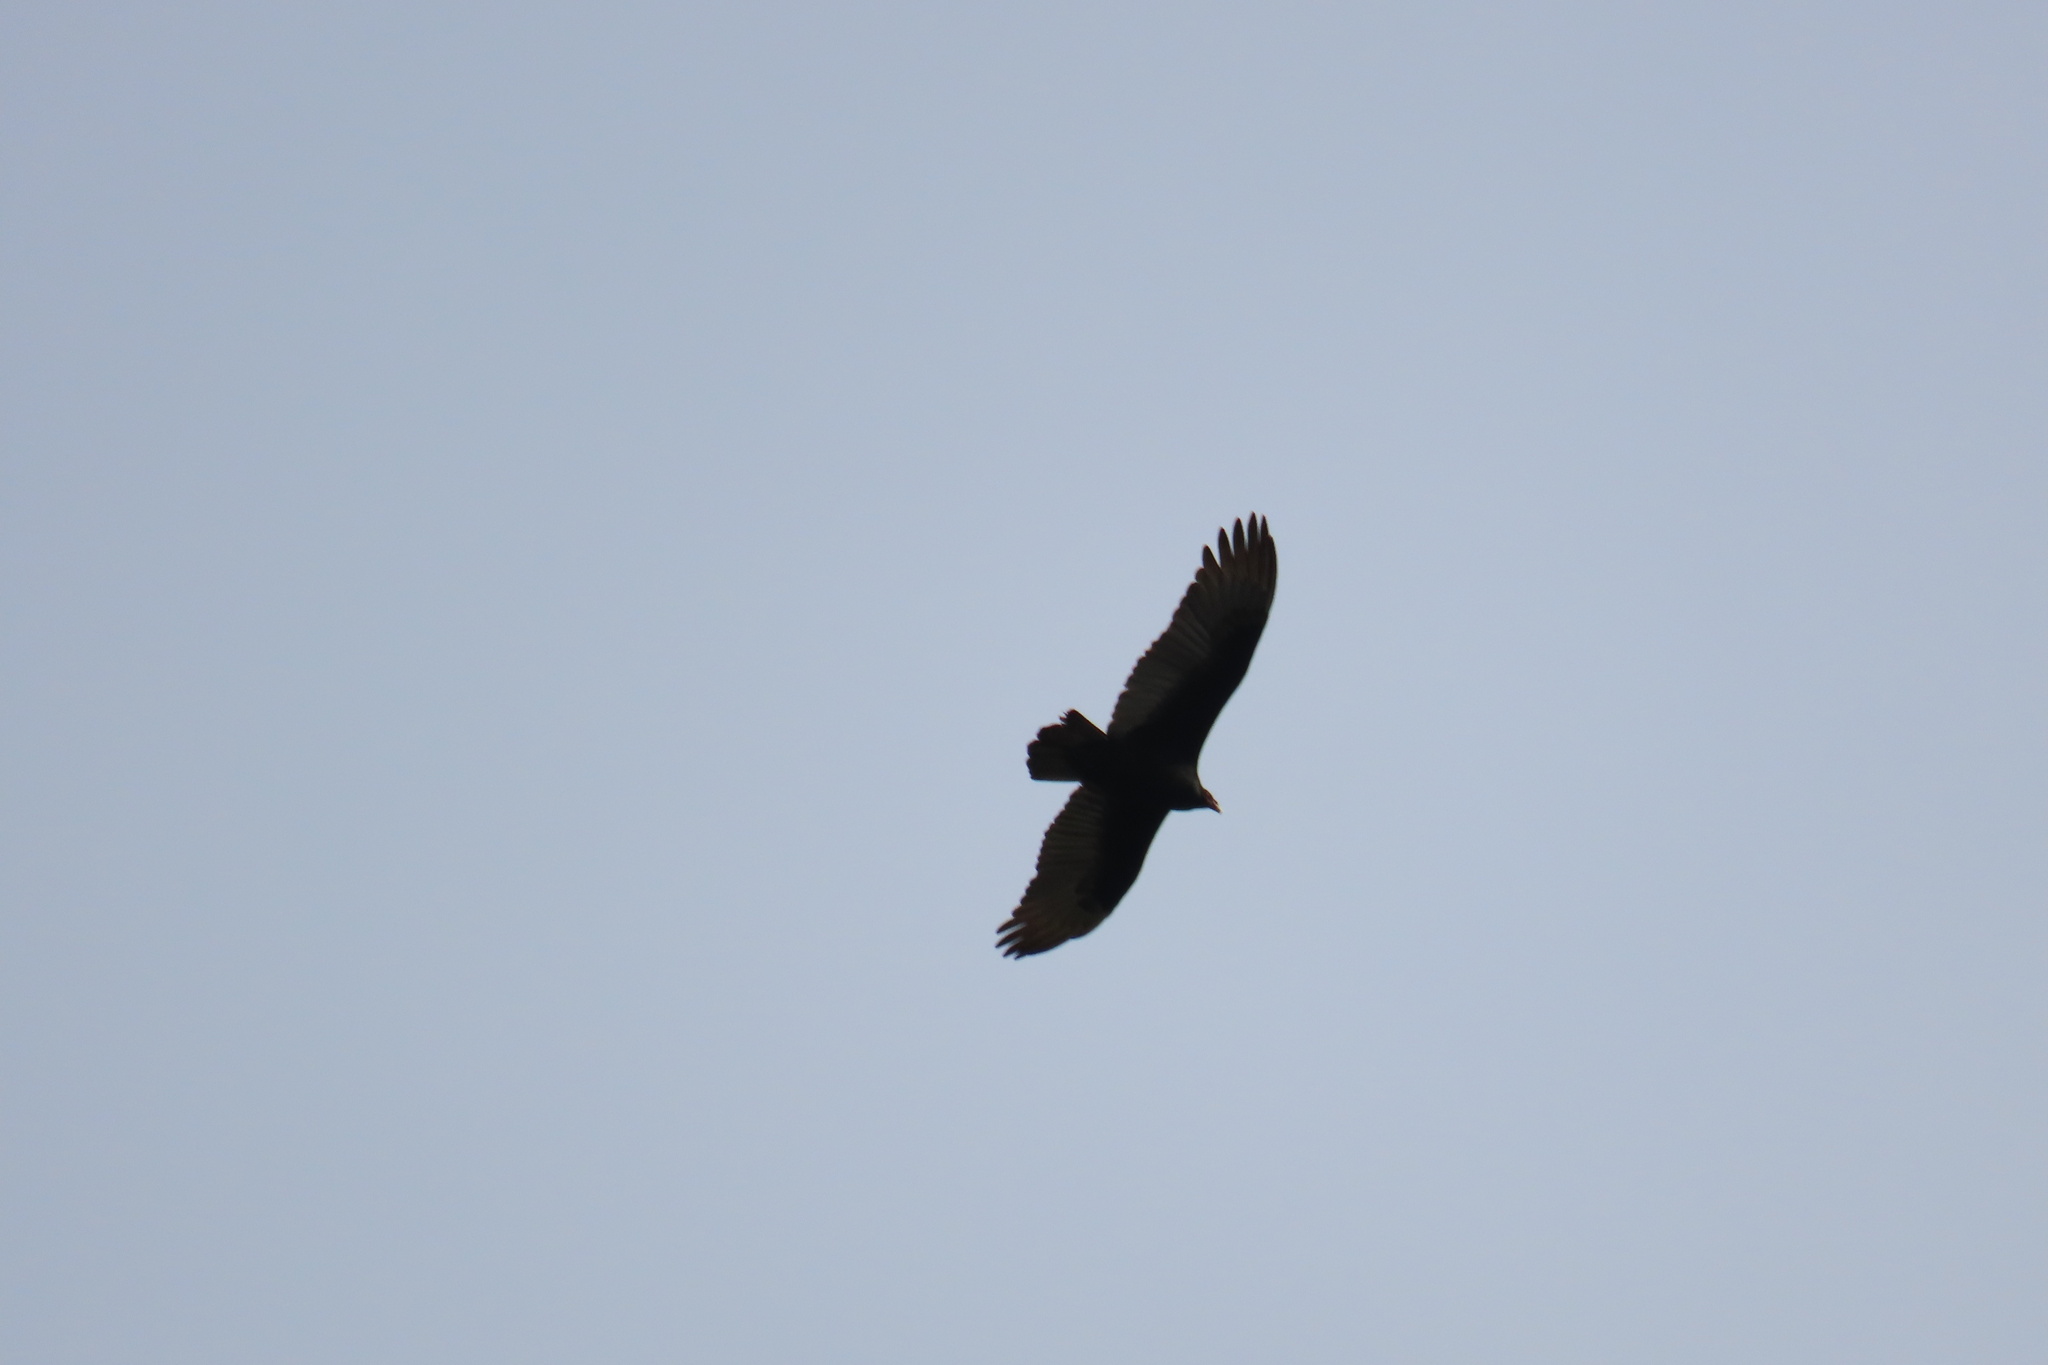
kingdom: Animalia
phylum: Chordata
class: Aves
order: Accipitriformes
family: Cathartidae
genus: Cathartes
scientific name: Cathartes aura
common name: Turkey vulture
